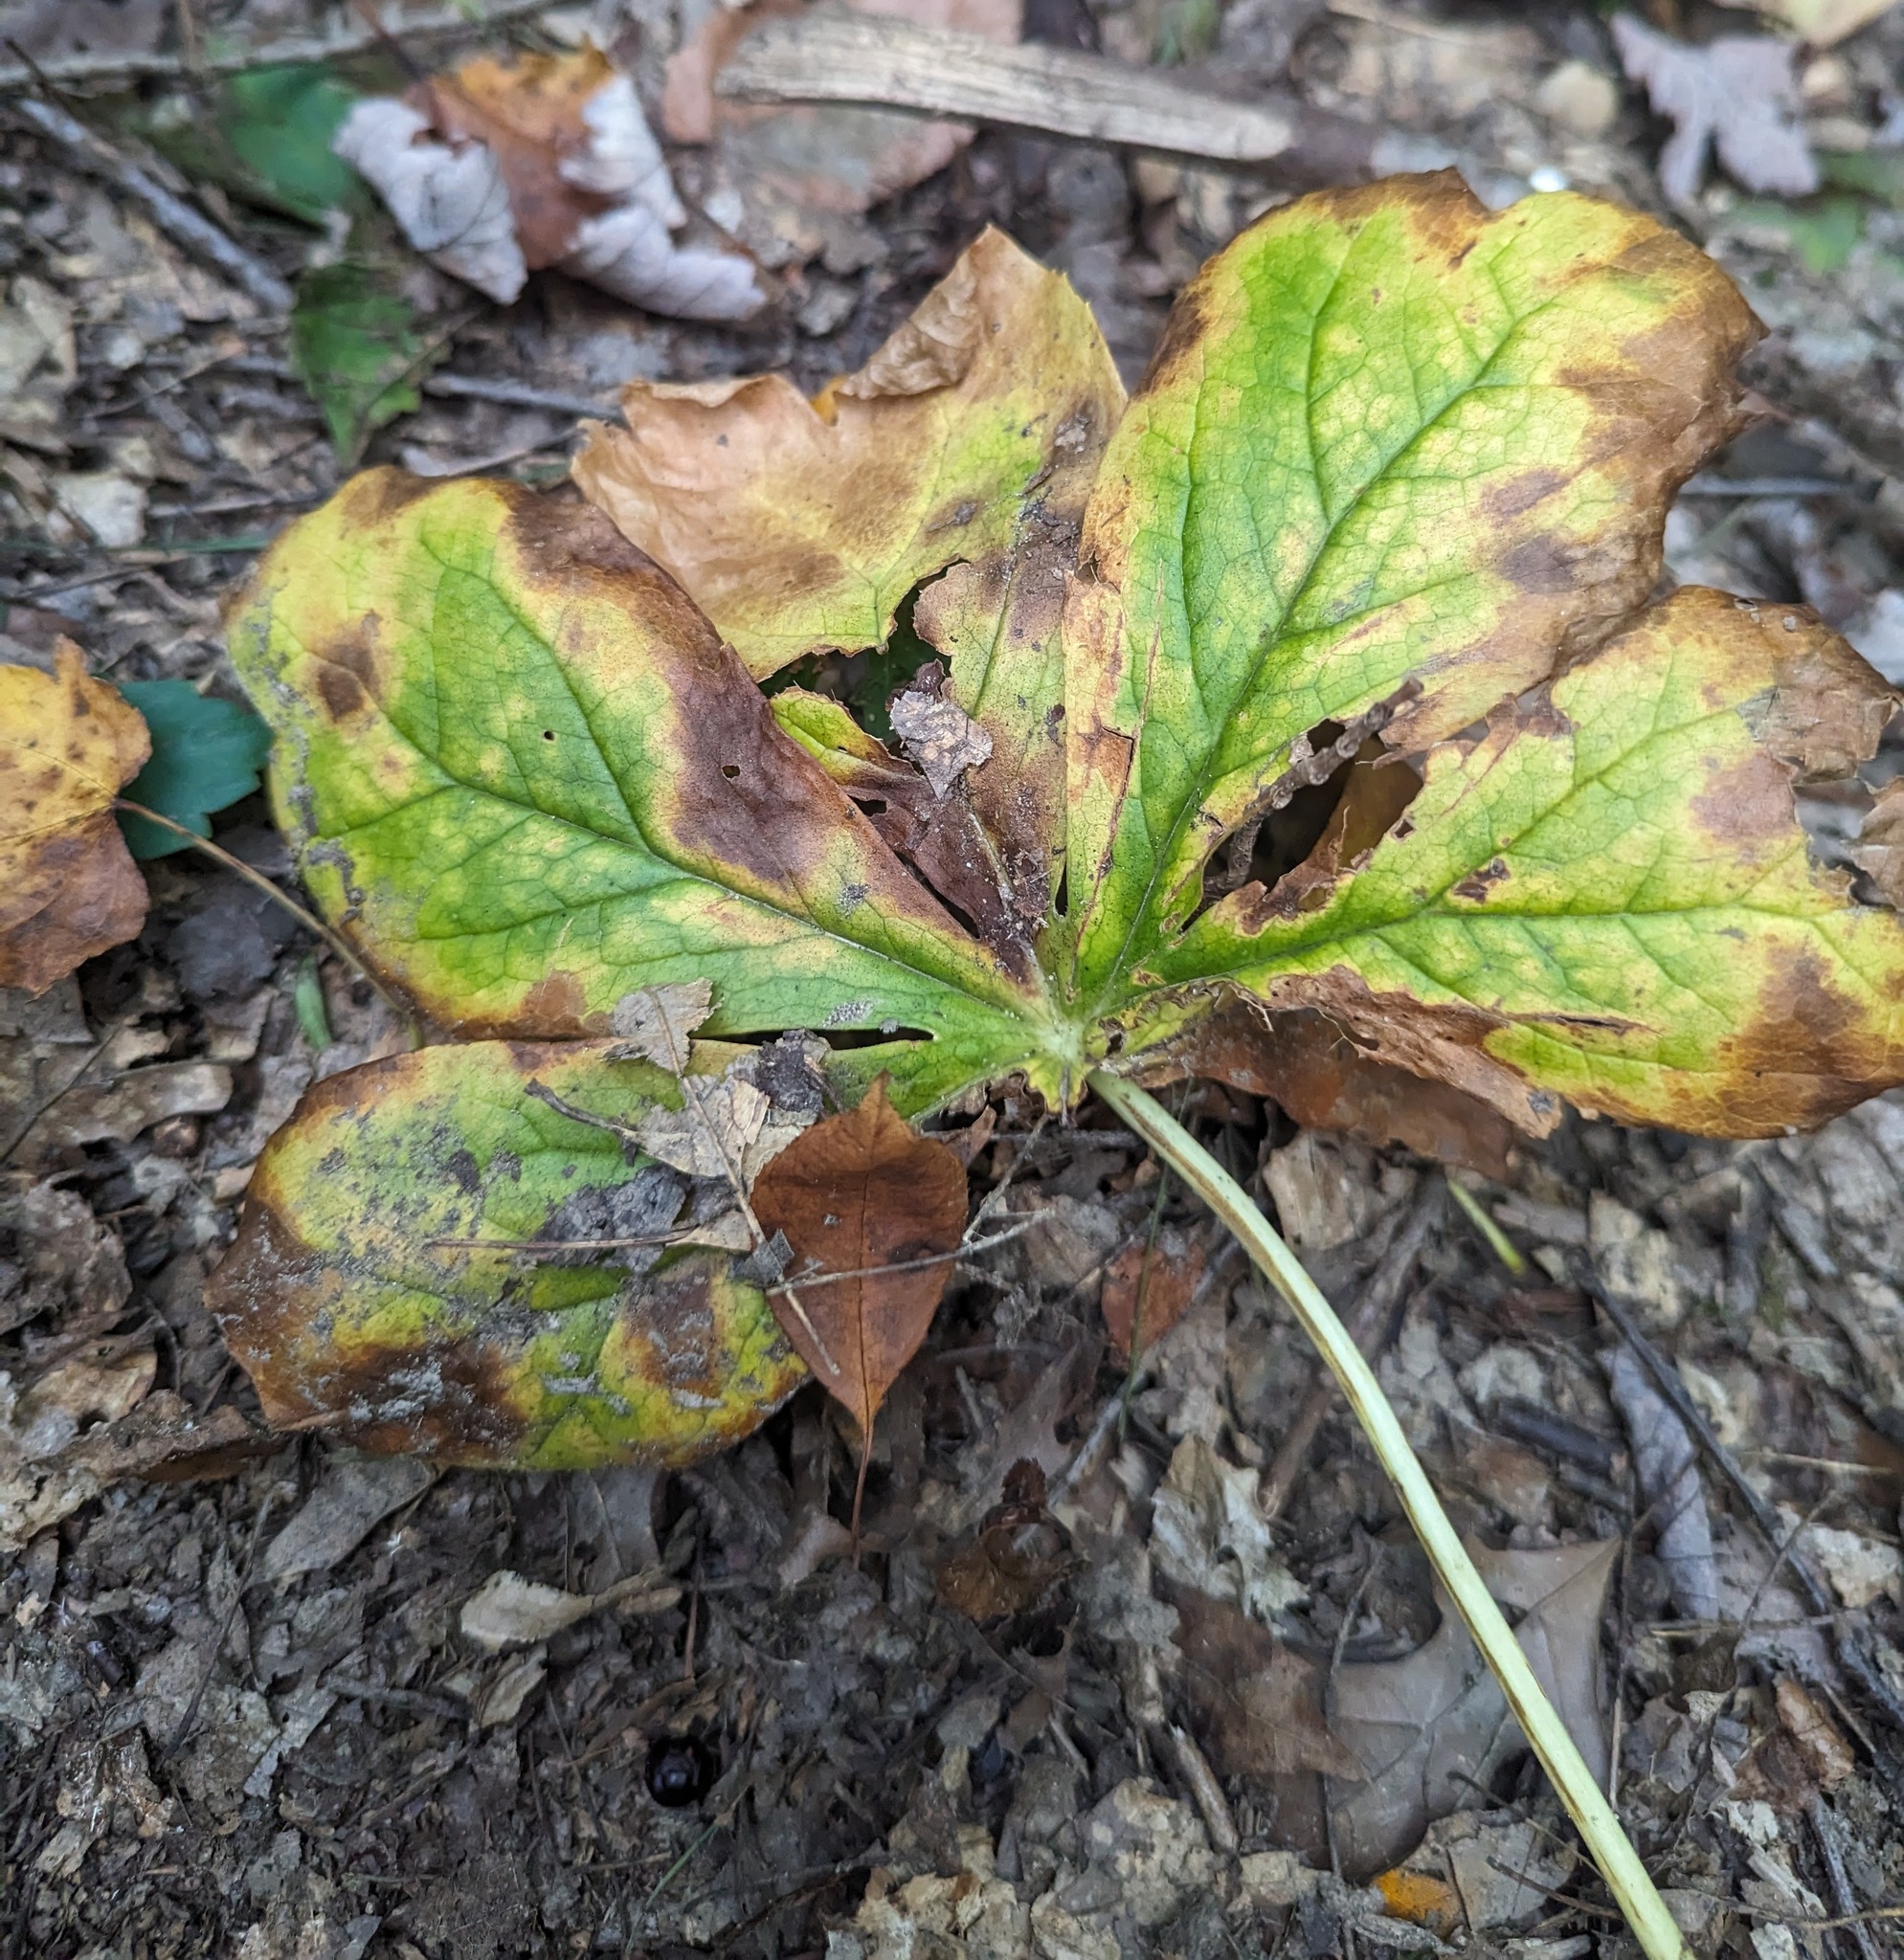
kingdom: Plantae
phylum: Tracheophyta
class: Magnoliopsida
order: Ranunculales
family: Berberidaceae
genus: Podophyllum
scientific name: Podophyllum peltatum
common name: Wild mandrake
